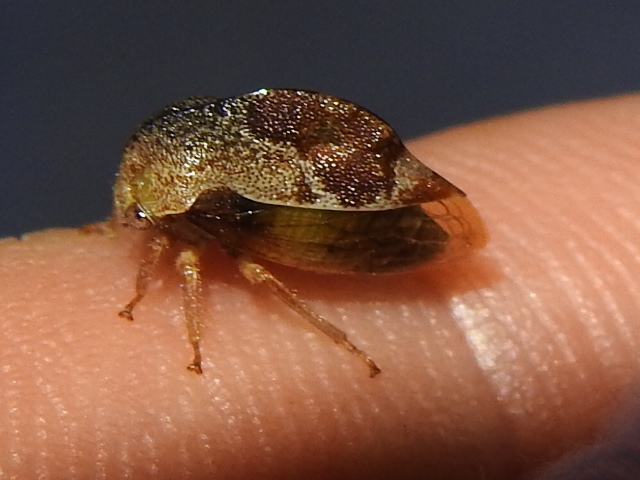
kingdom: Animalia
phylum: Arthropoda
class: Insecta
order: Hemiptera
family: Membracidae
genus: Xantholobus
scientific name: Xantholobus mutica
